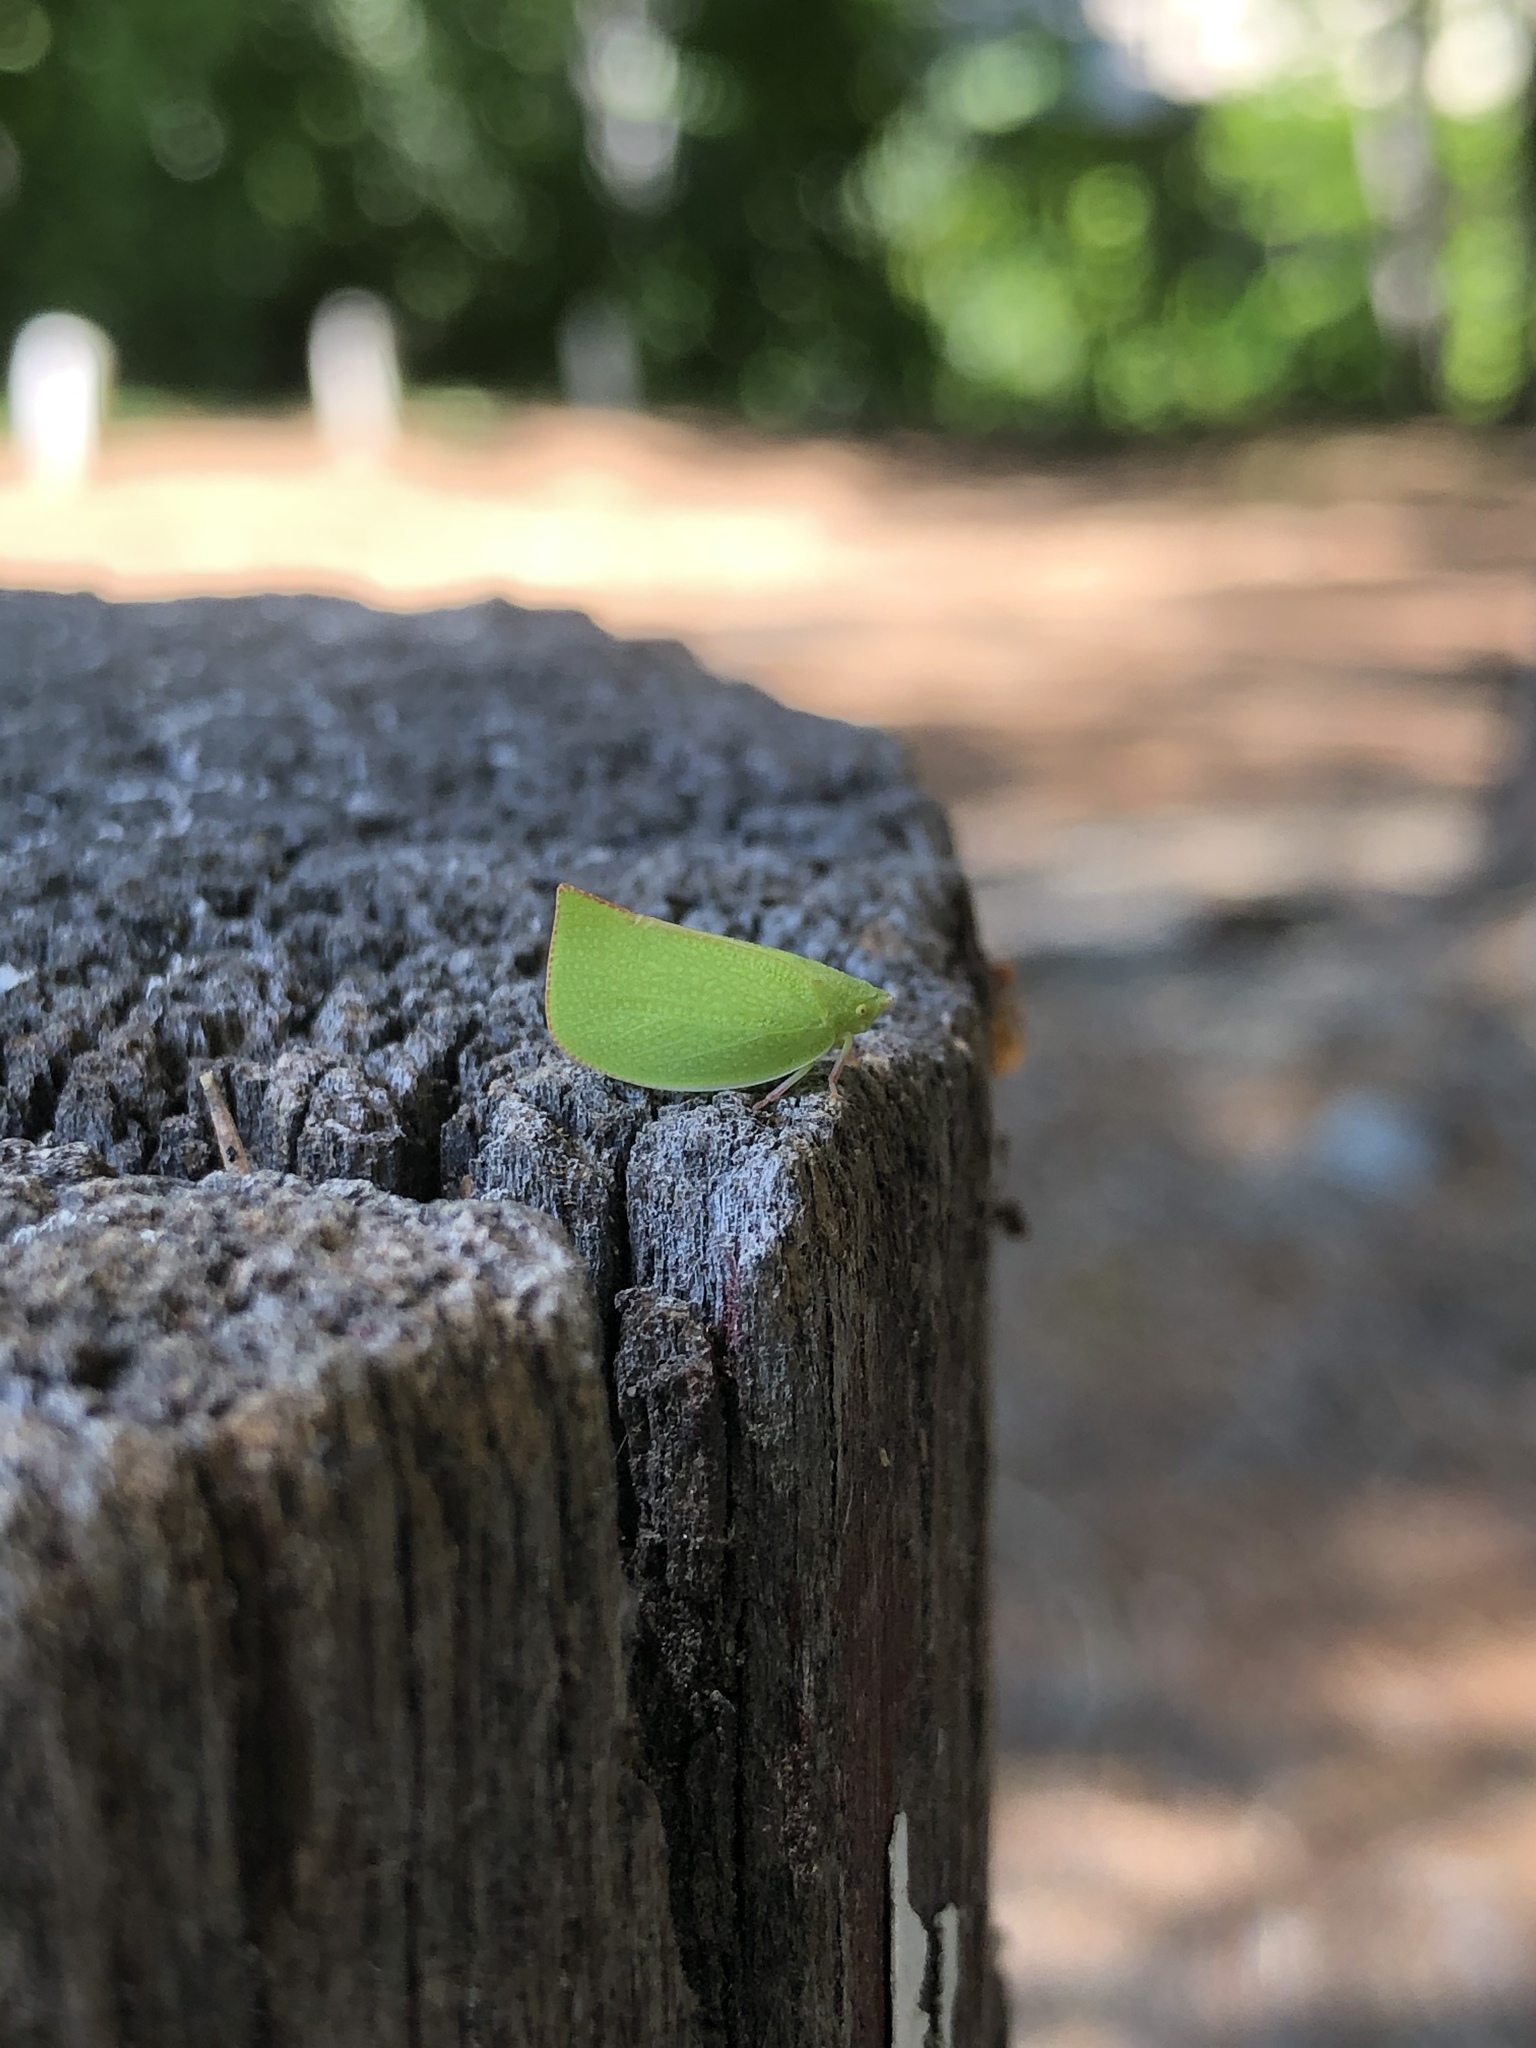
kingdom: Animalia
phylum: Arthropoda
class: Insecta
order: Hemiptera
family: Flatidae
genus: Siphanta
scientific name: Siphanta acuta
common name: Torpedo bug
